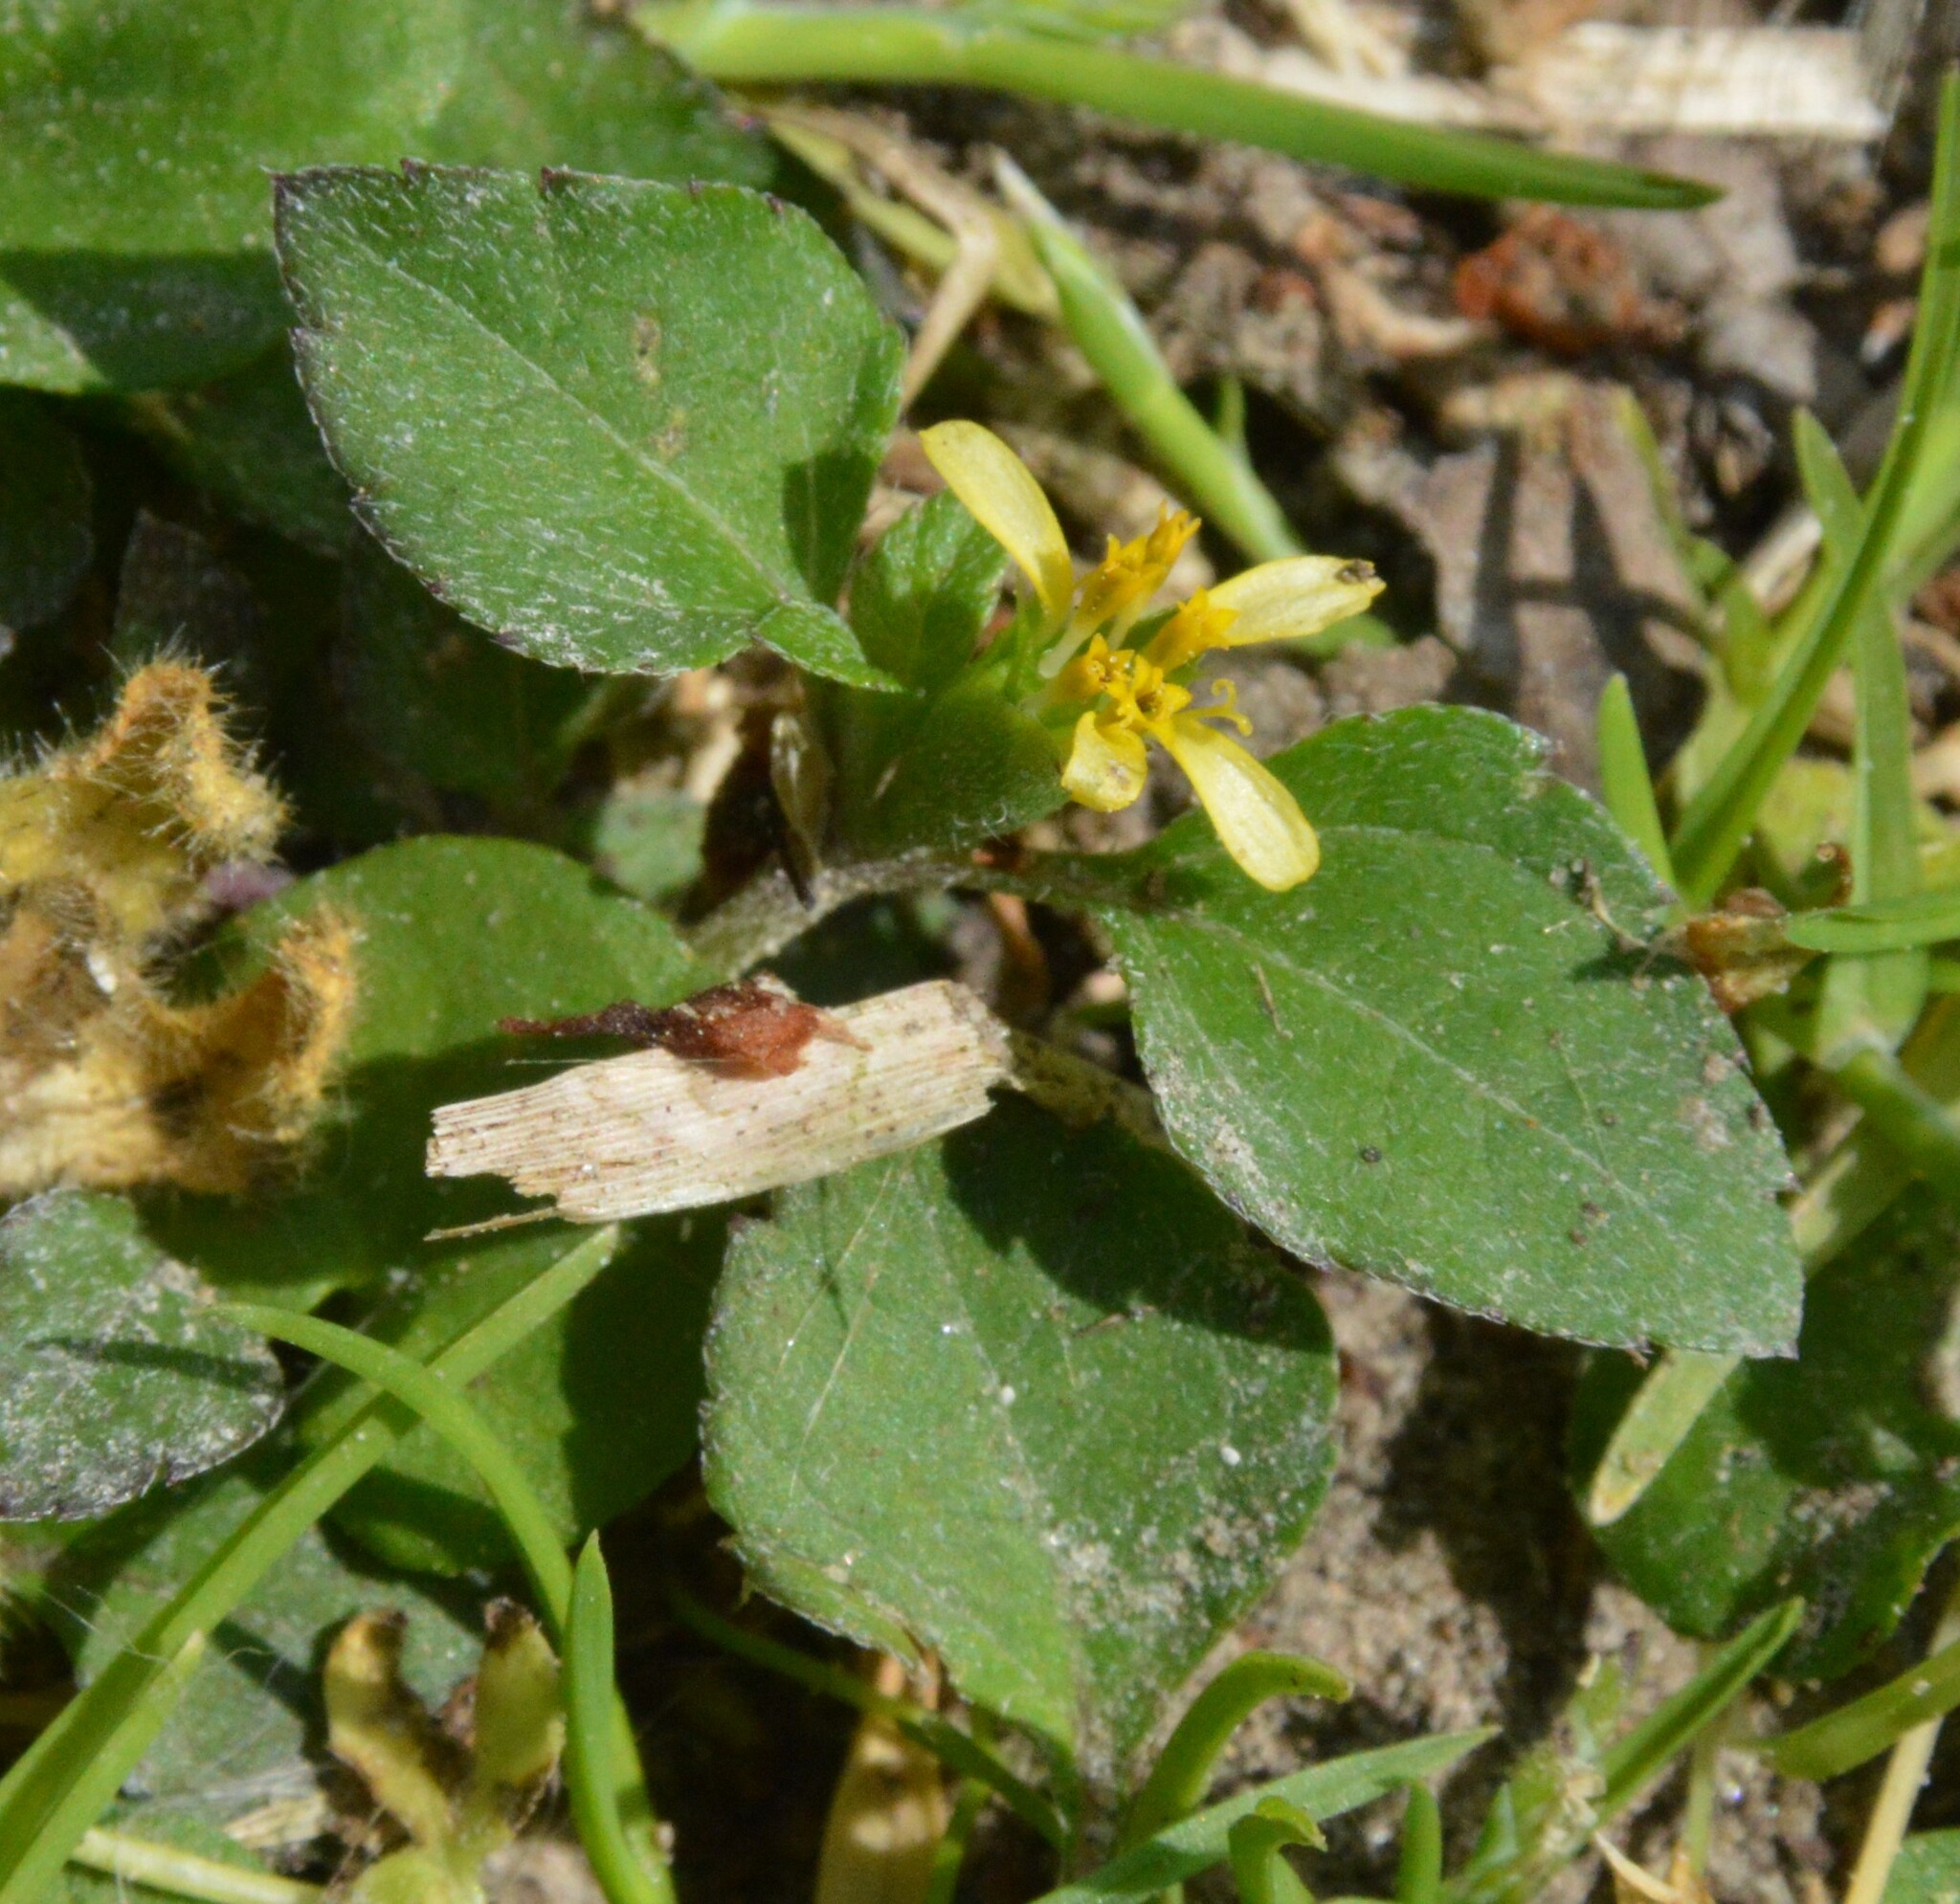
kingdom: Plantae
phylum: Tracheophyta
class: Magnoliopsida
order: Asterales
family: Asteraceae
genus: Calyptocarpus
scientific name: Calyptocarpus vialis
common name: Straggler daisy
